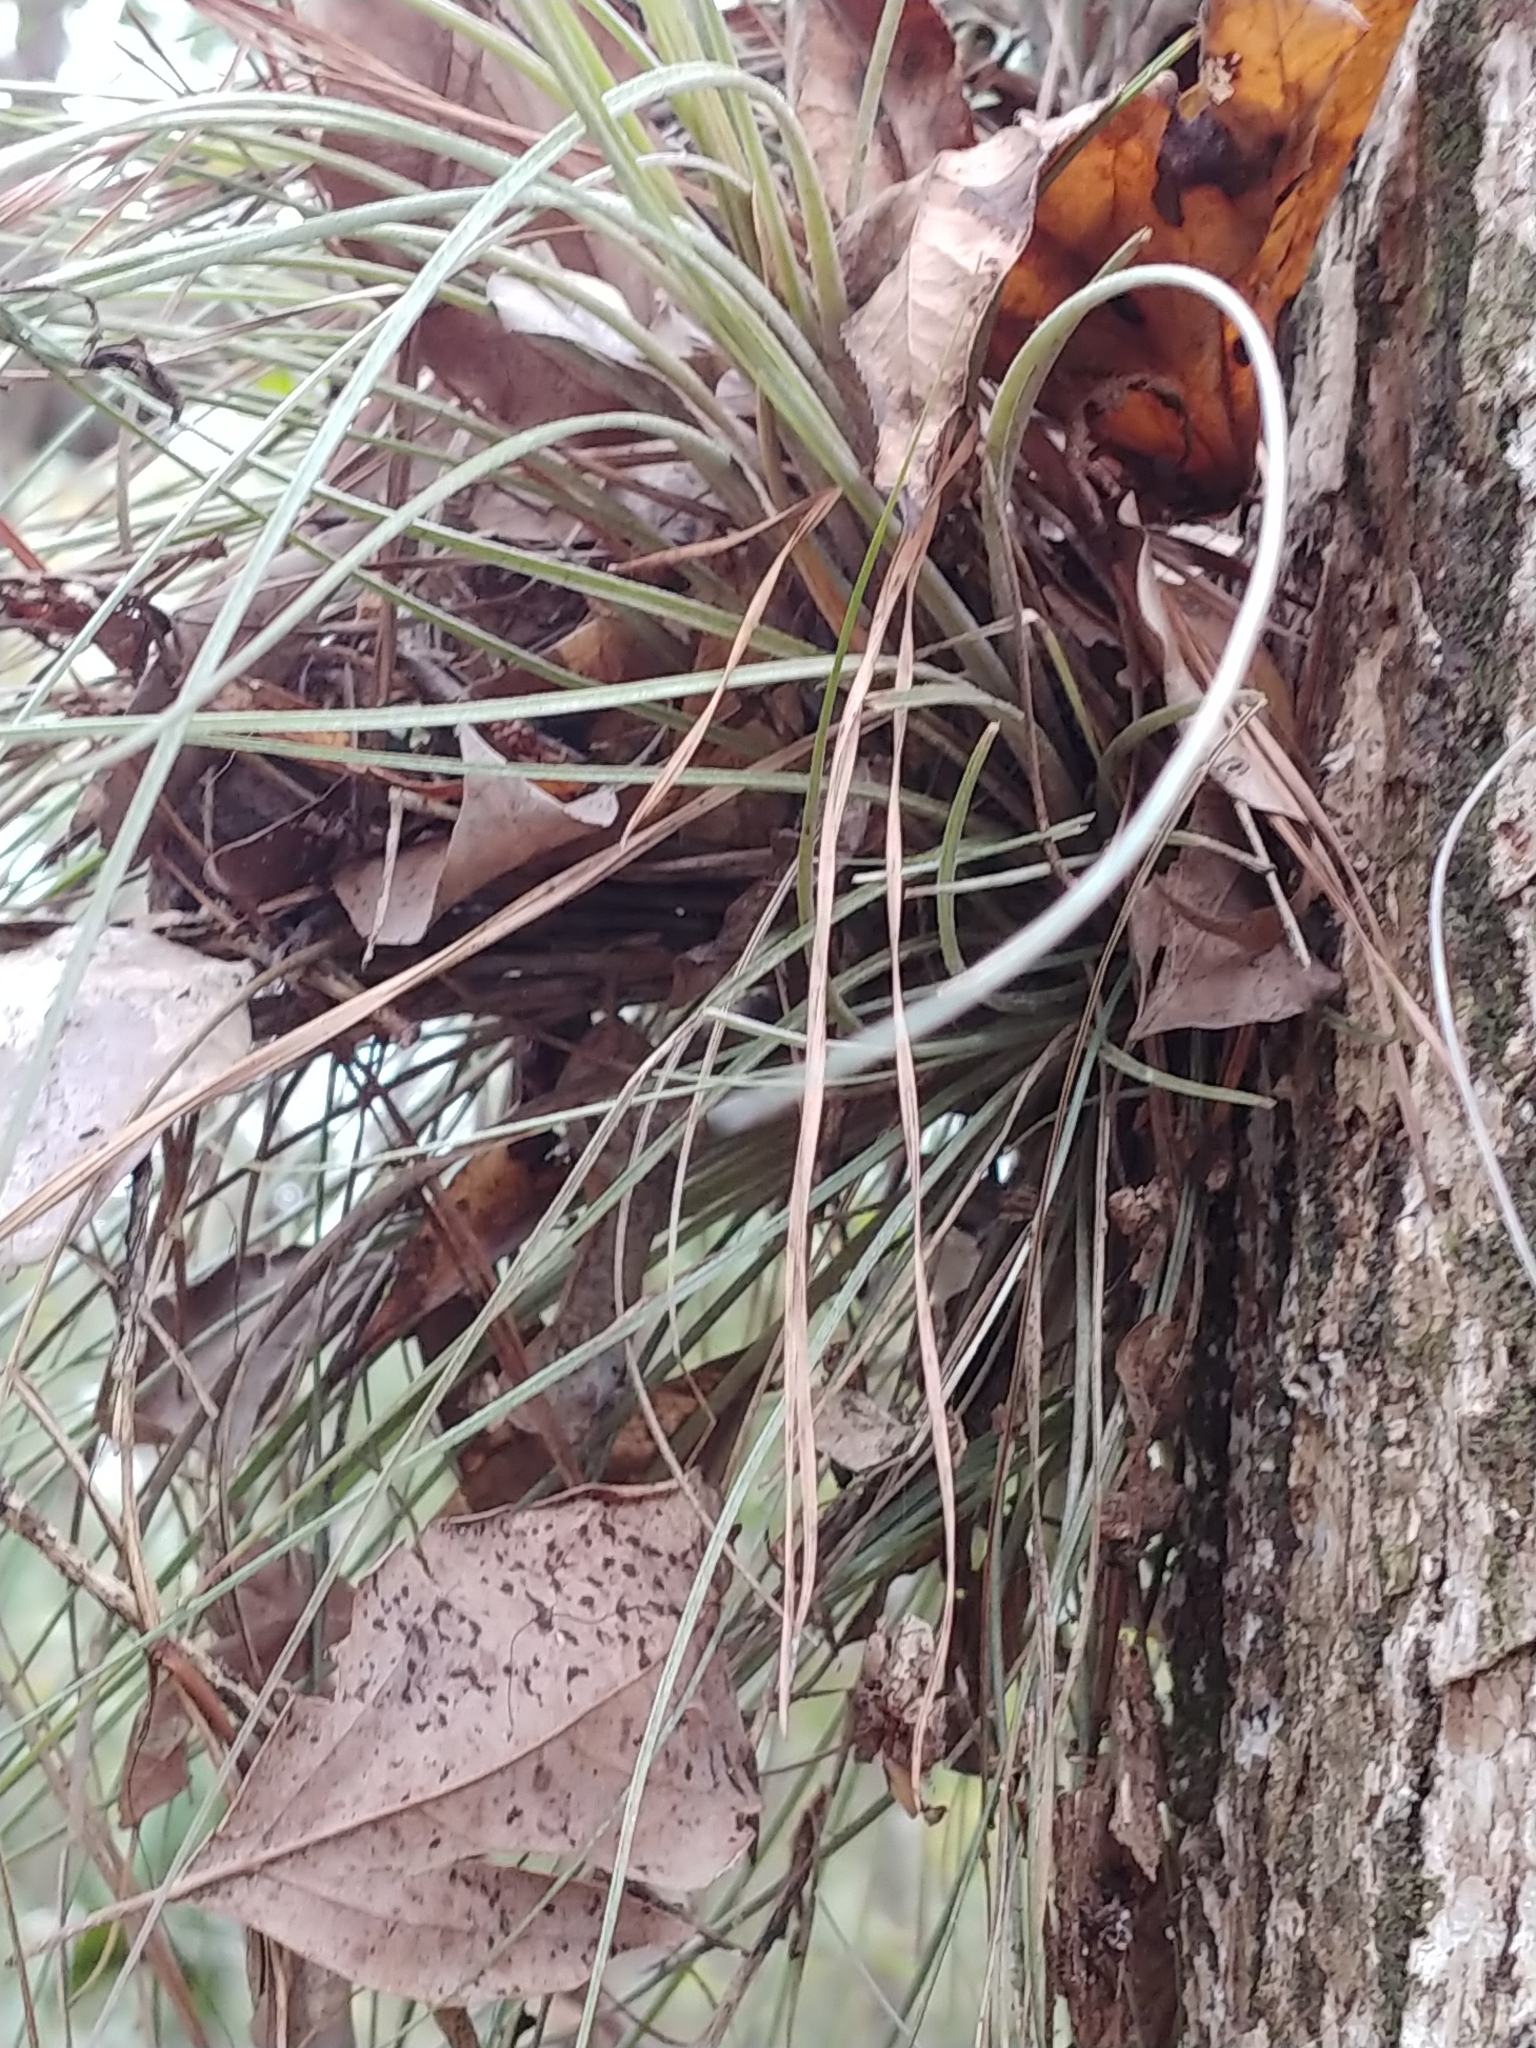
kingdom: Plantae
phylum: Tracheophyta
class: Liliopsida
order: Poales
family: Bromeliaceae
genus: Tillandsia
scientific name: Tillandsia bartramii
